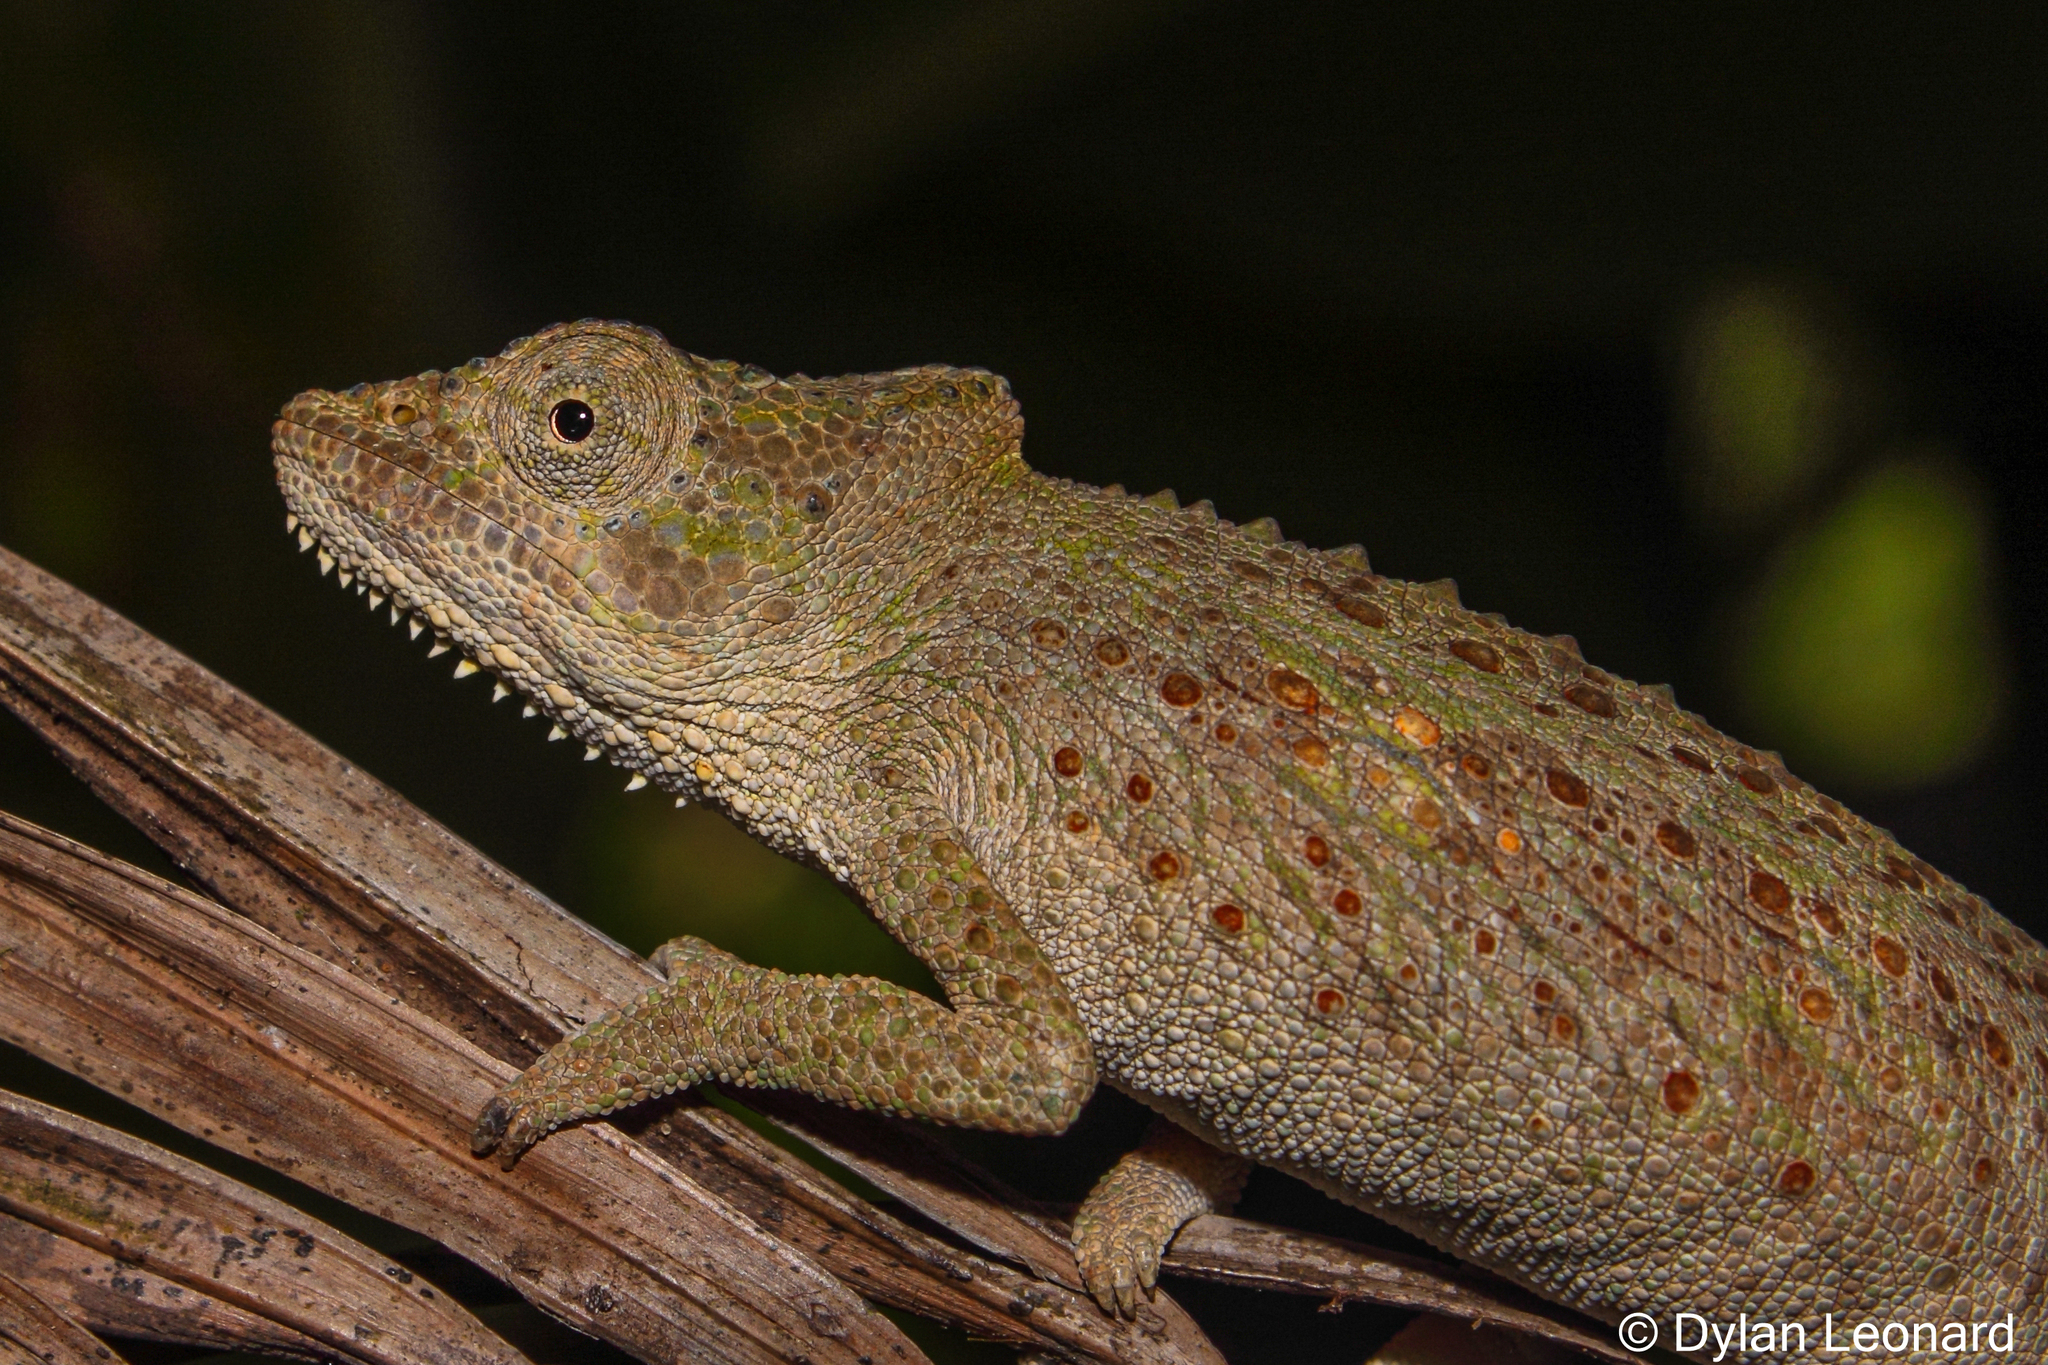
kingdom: Animalia
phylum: Chordata
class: Squamata
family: Chamaeleonidae
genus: Bradypodion
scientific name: Bradypodion setaroi
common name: Setaro's dwarf chameleon
